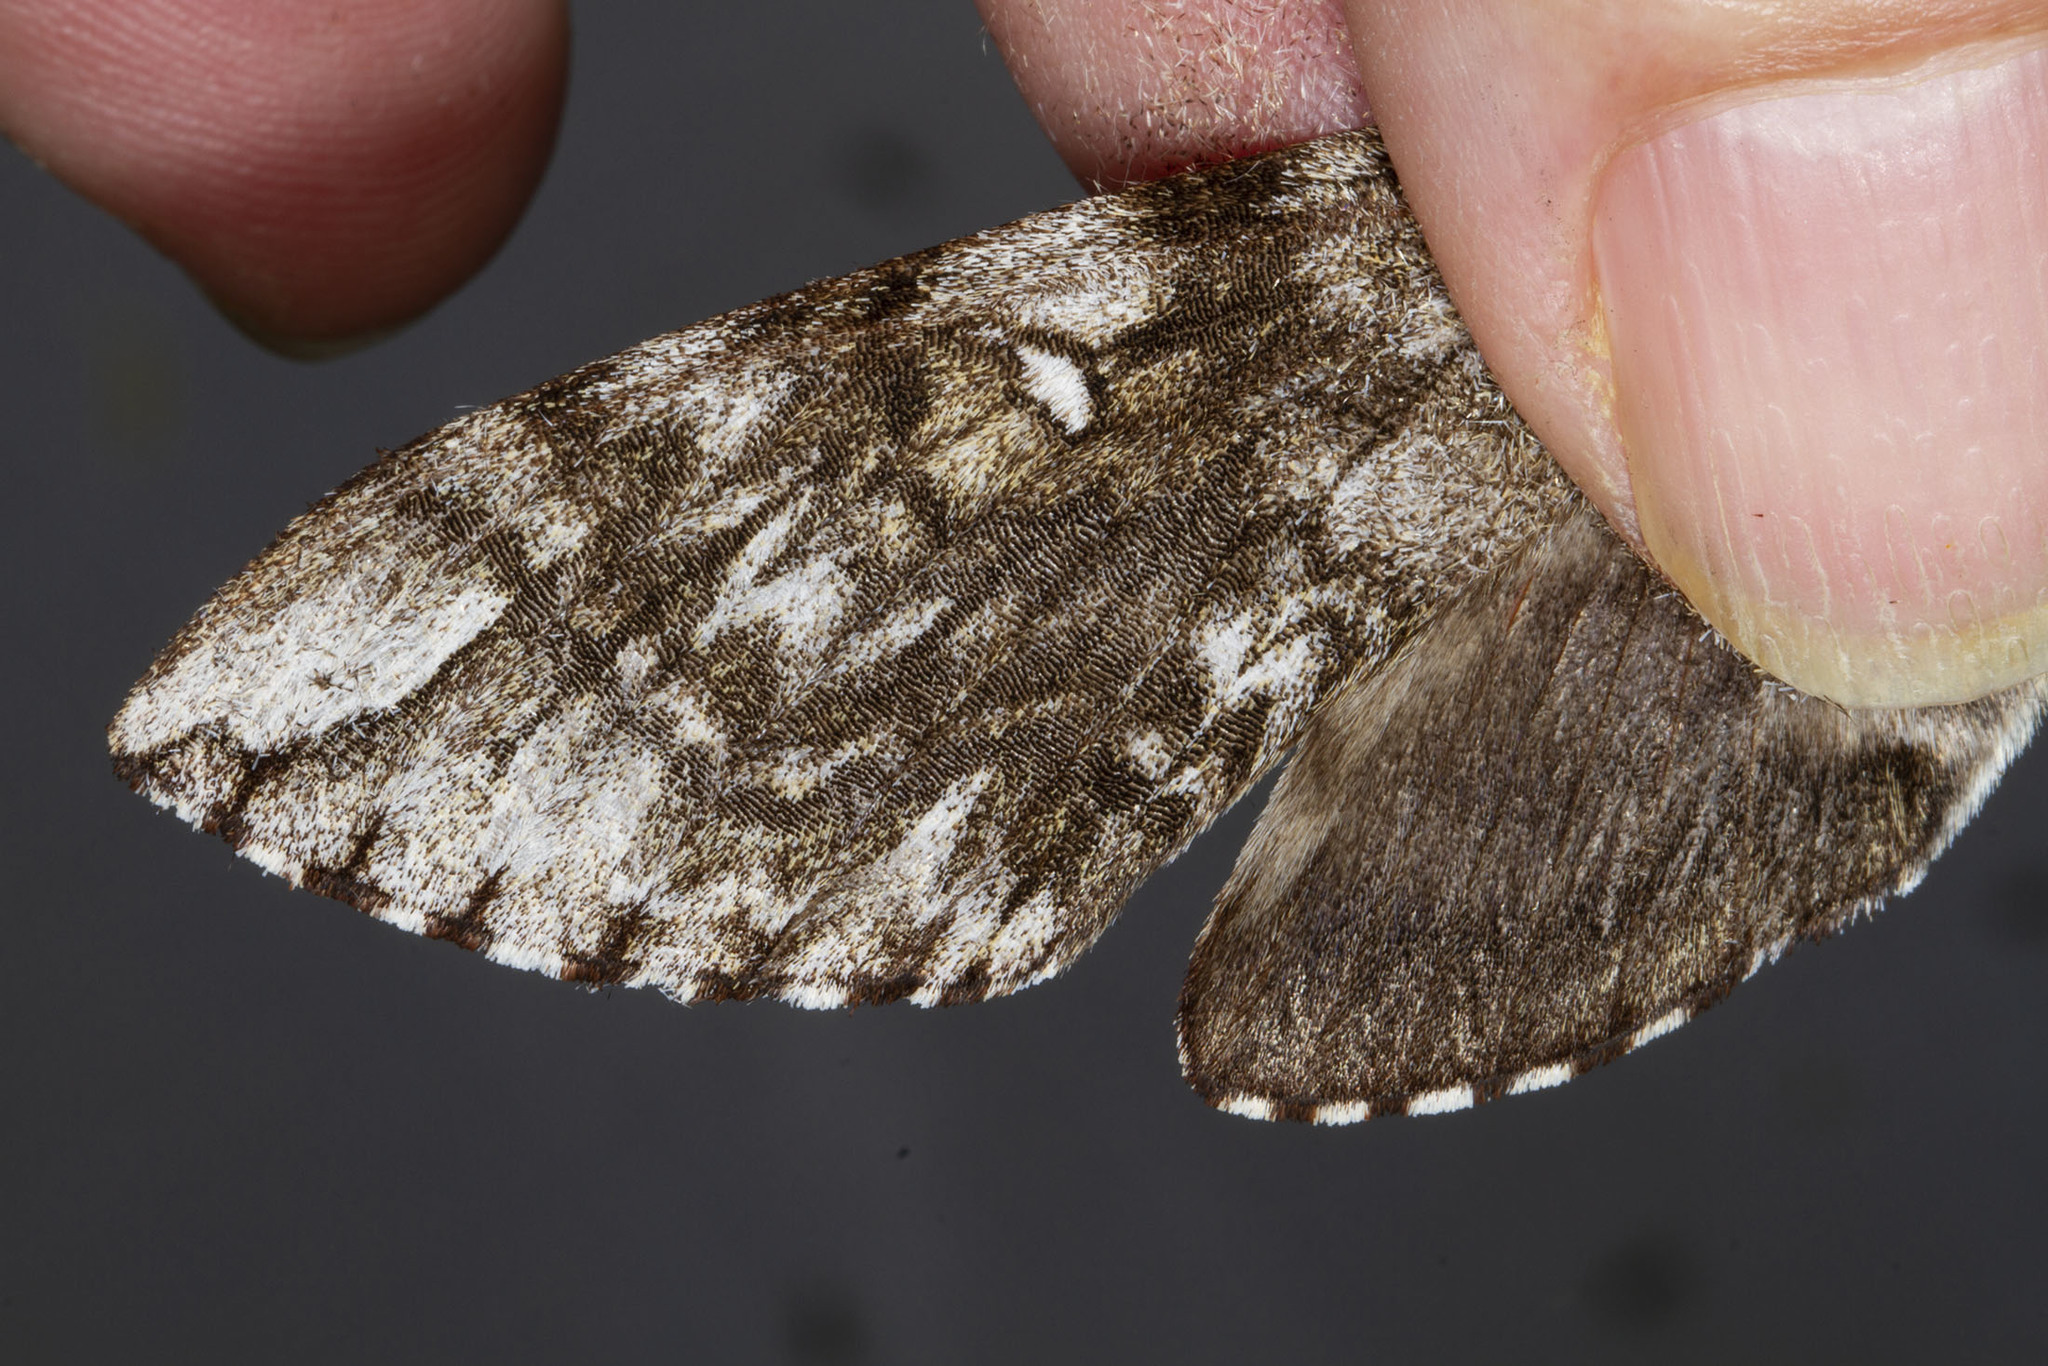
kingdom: Animalia
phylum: Arthropoda
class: Insecta
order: Lepidoptera
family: Sphingidae
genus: Ceratomia
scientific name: Ceratomia undulosa
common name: Waved sphinx
